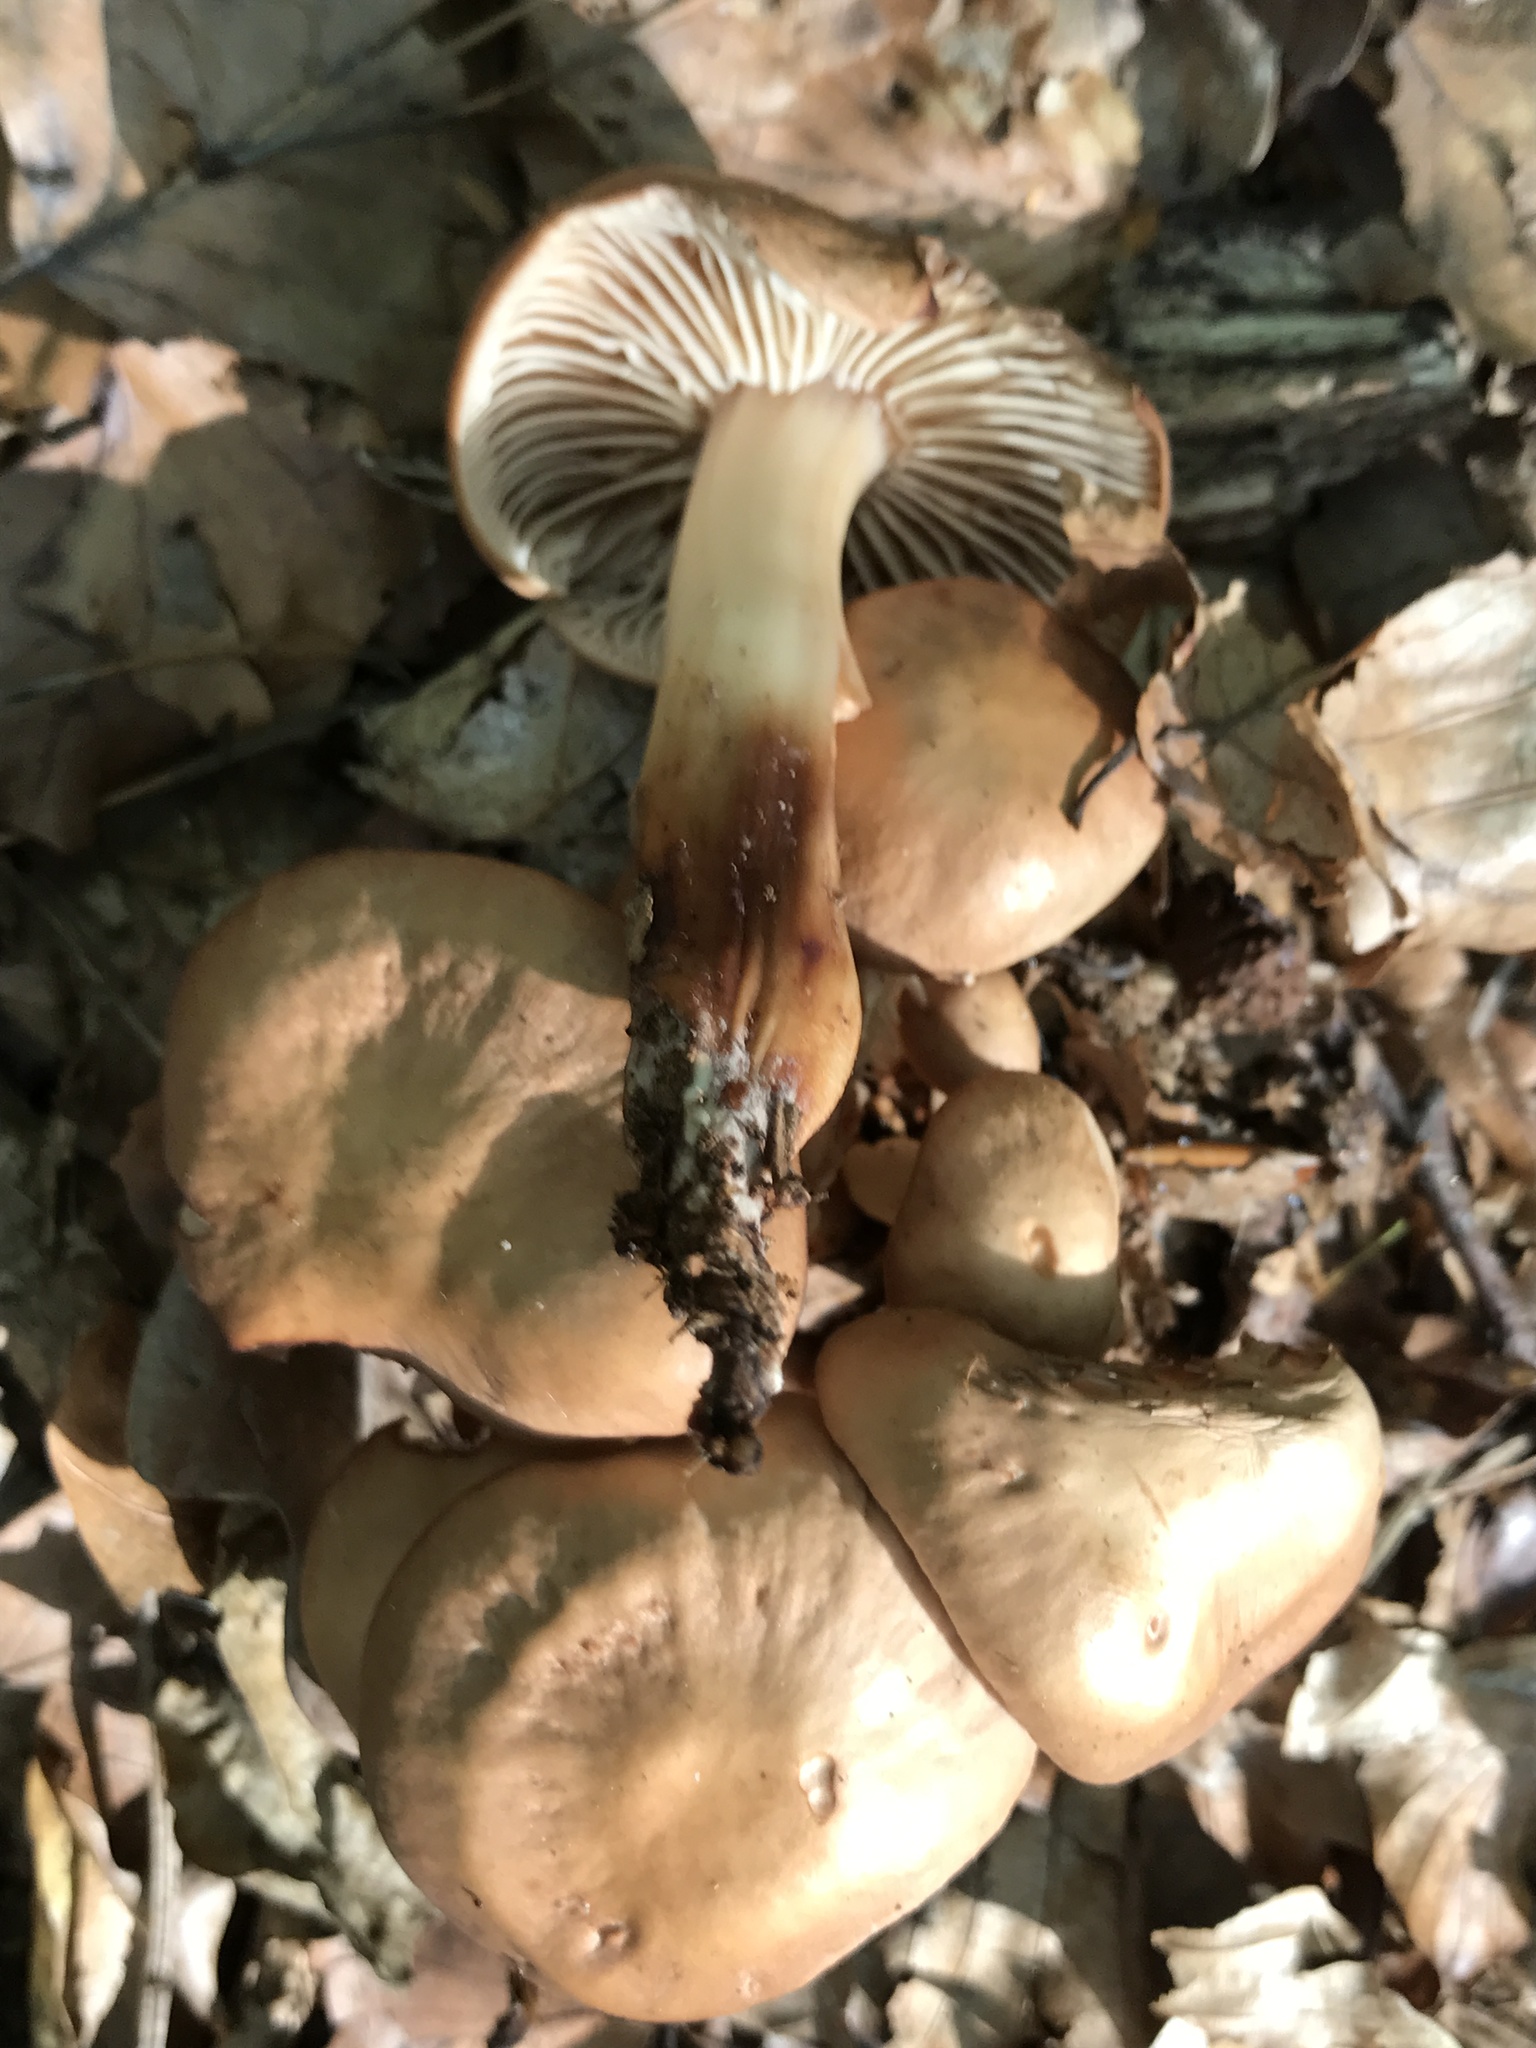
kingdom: Fungi
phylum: Basidiomycota
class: Agaricomycetes
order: Agaricales
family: Omphalotaceae
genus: Gymnopus
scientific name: Gymnopus fusipes
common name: Spindle shank
